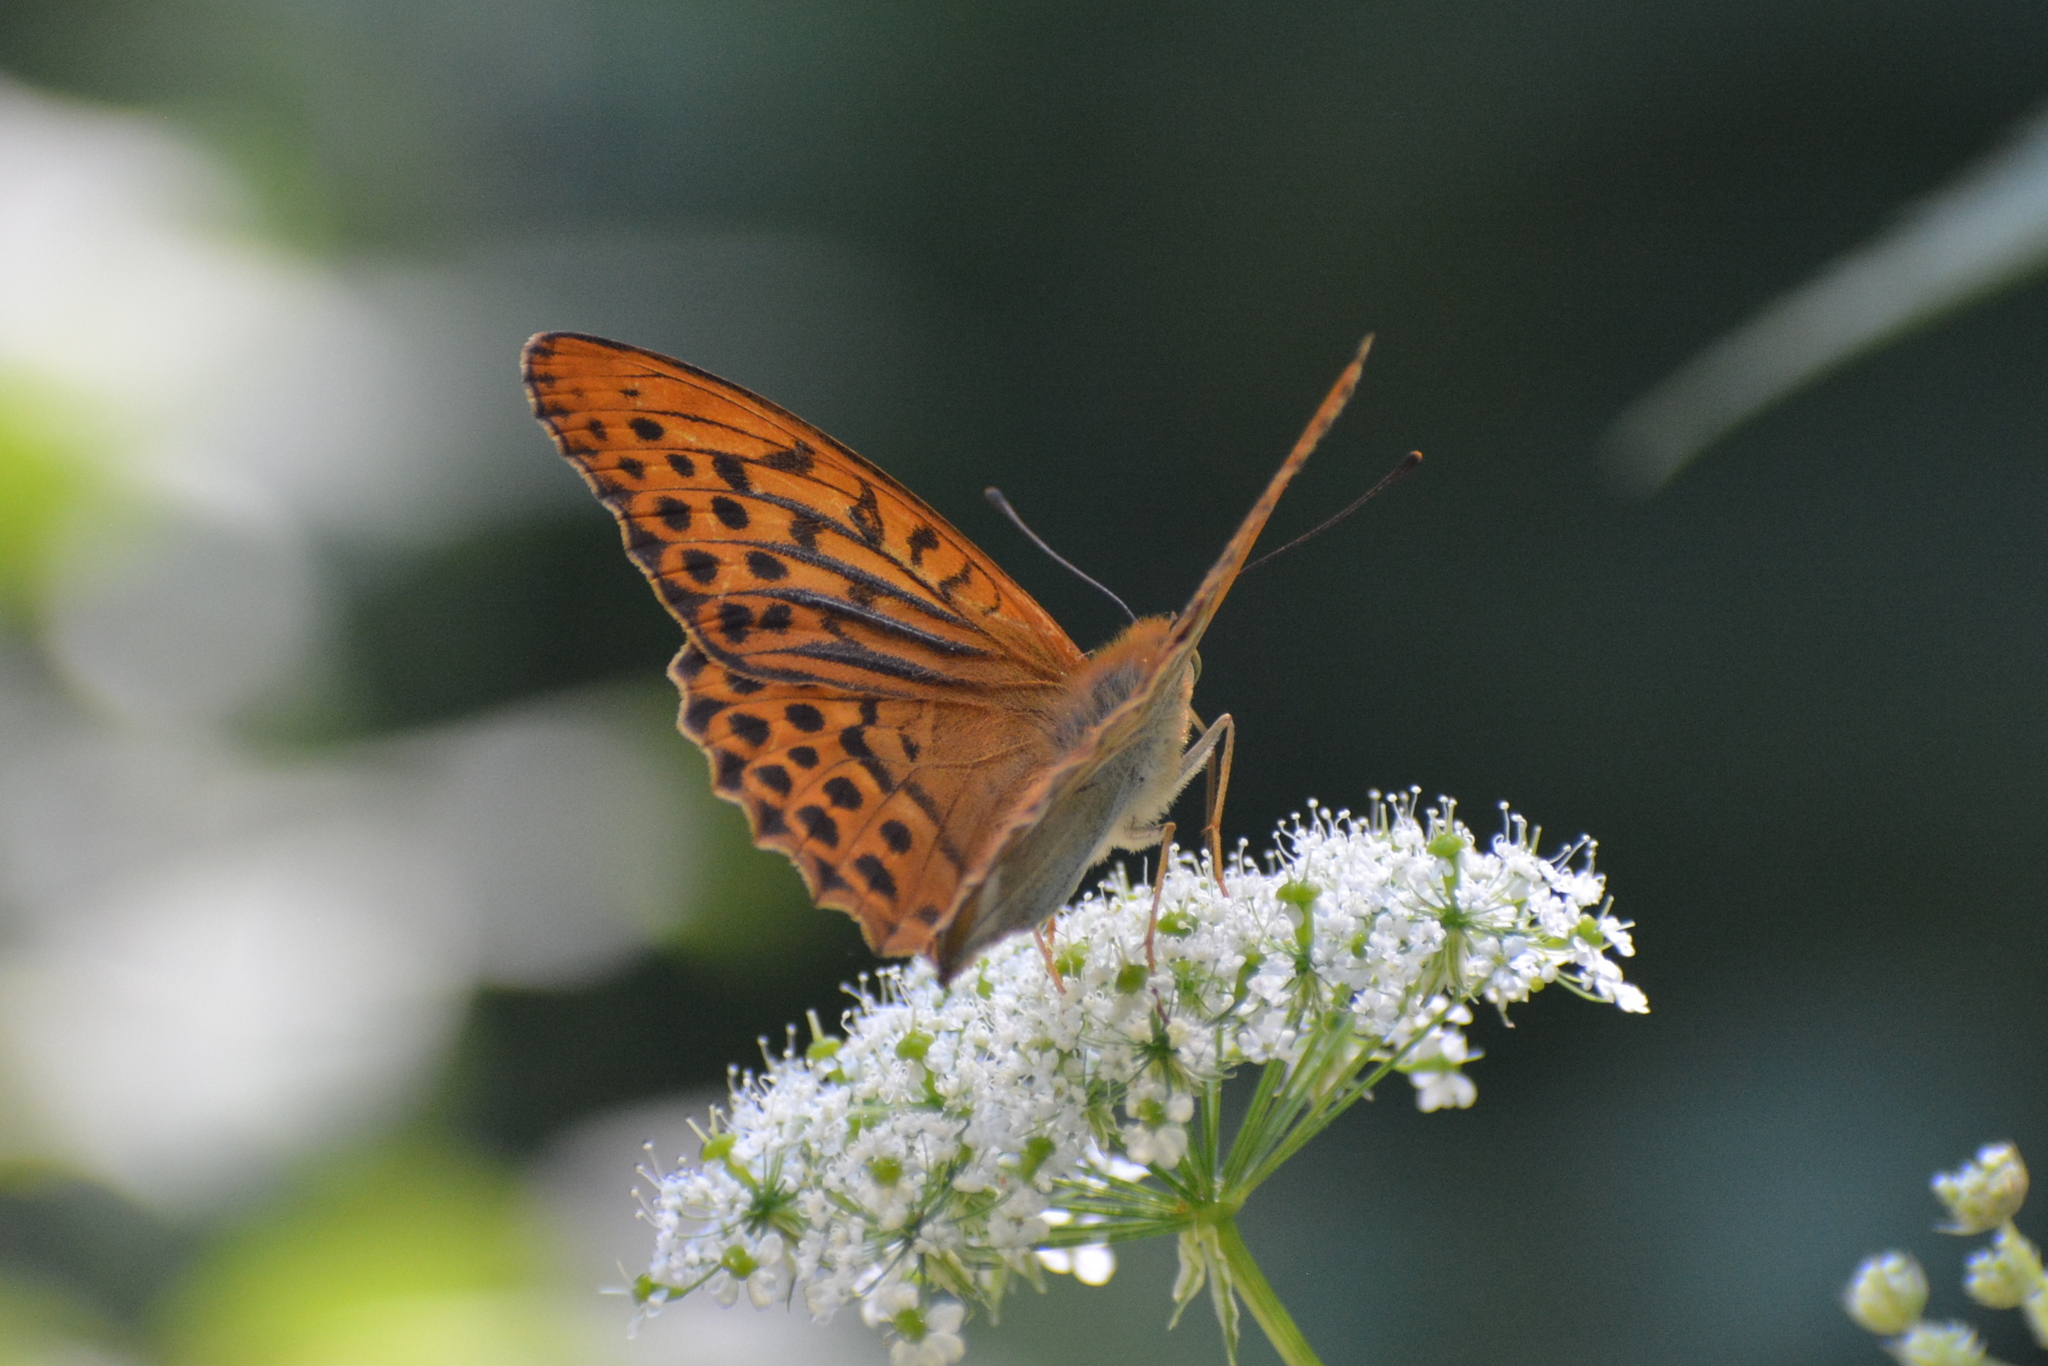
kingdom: Animalia
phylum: Arthropoda
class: Insecta
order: Lepidoptera
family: Nymphalidae
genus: Argynnis
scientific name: Argynnis paphia
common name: Silver-washed fritillary
